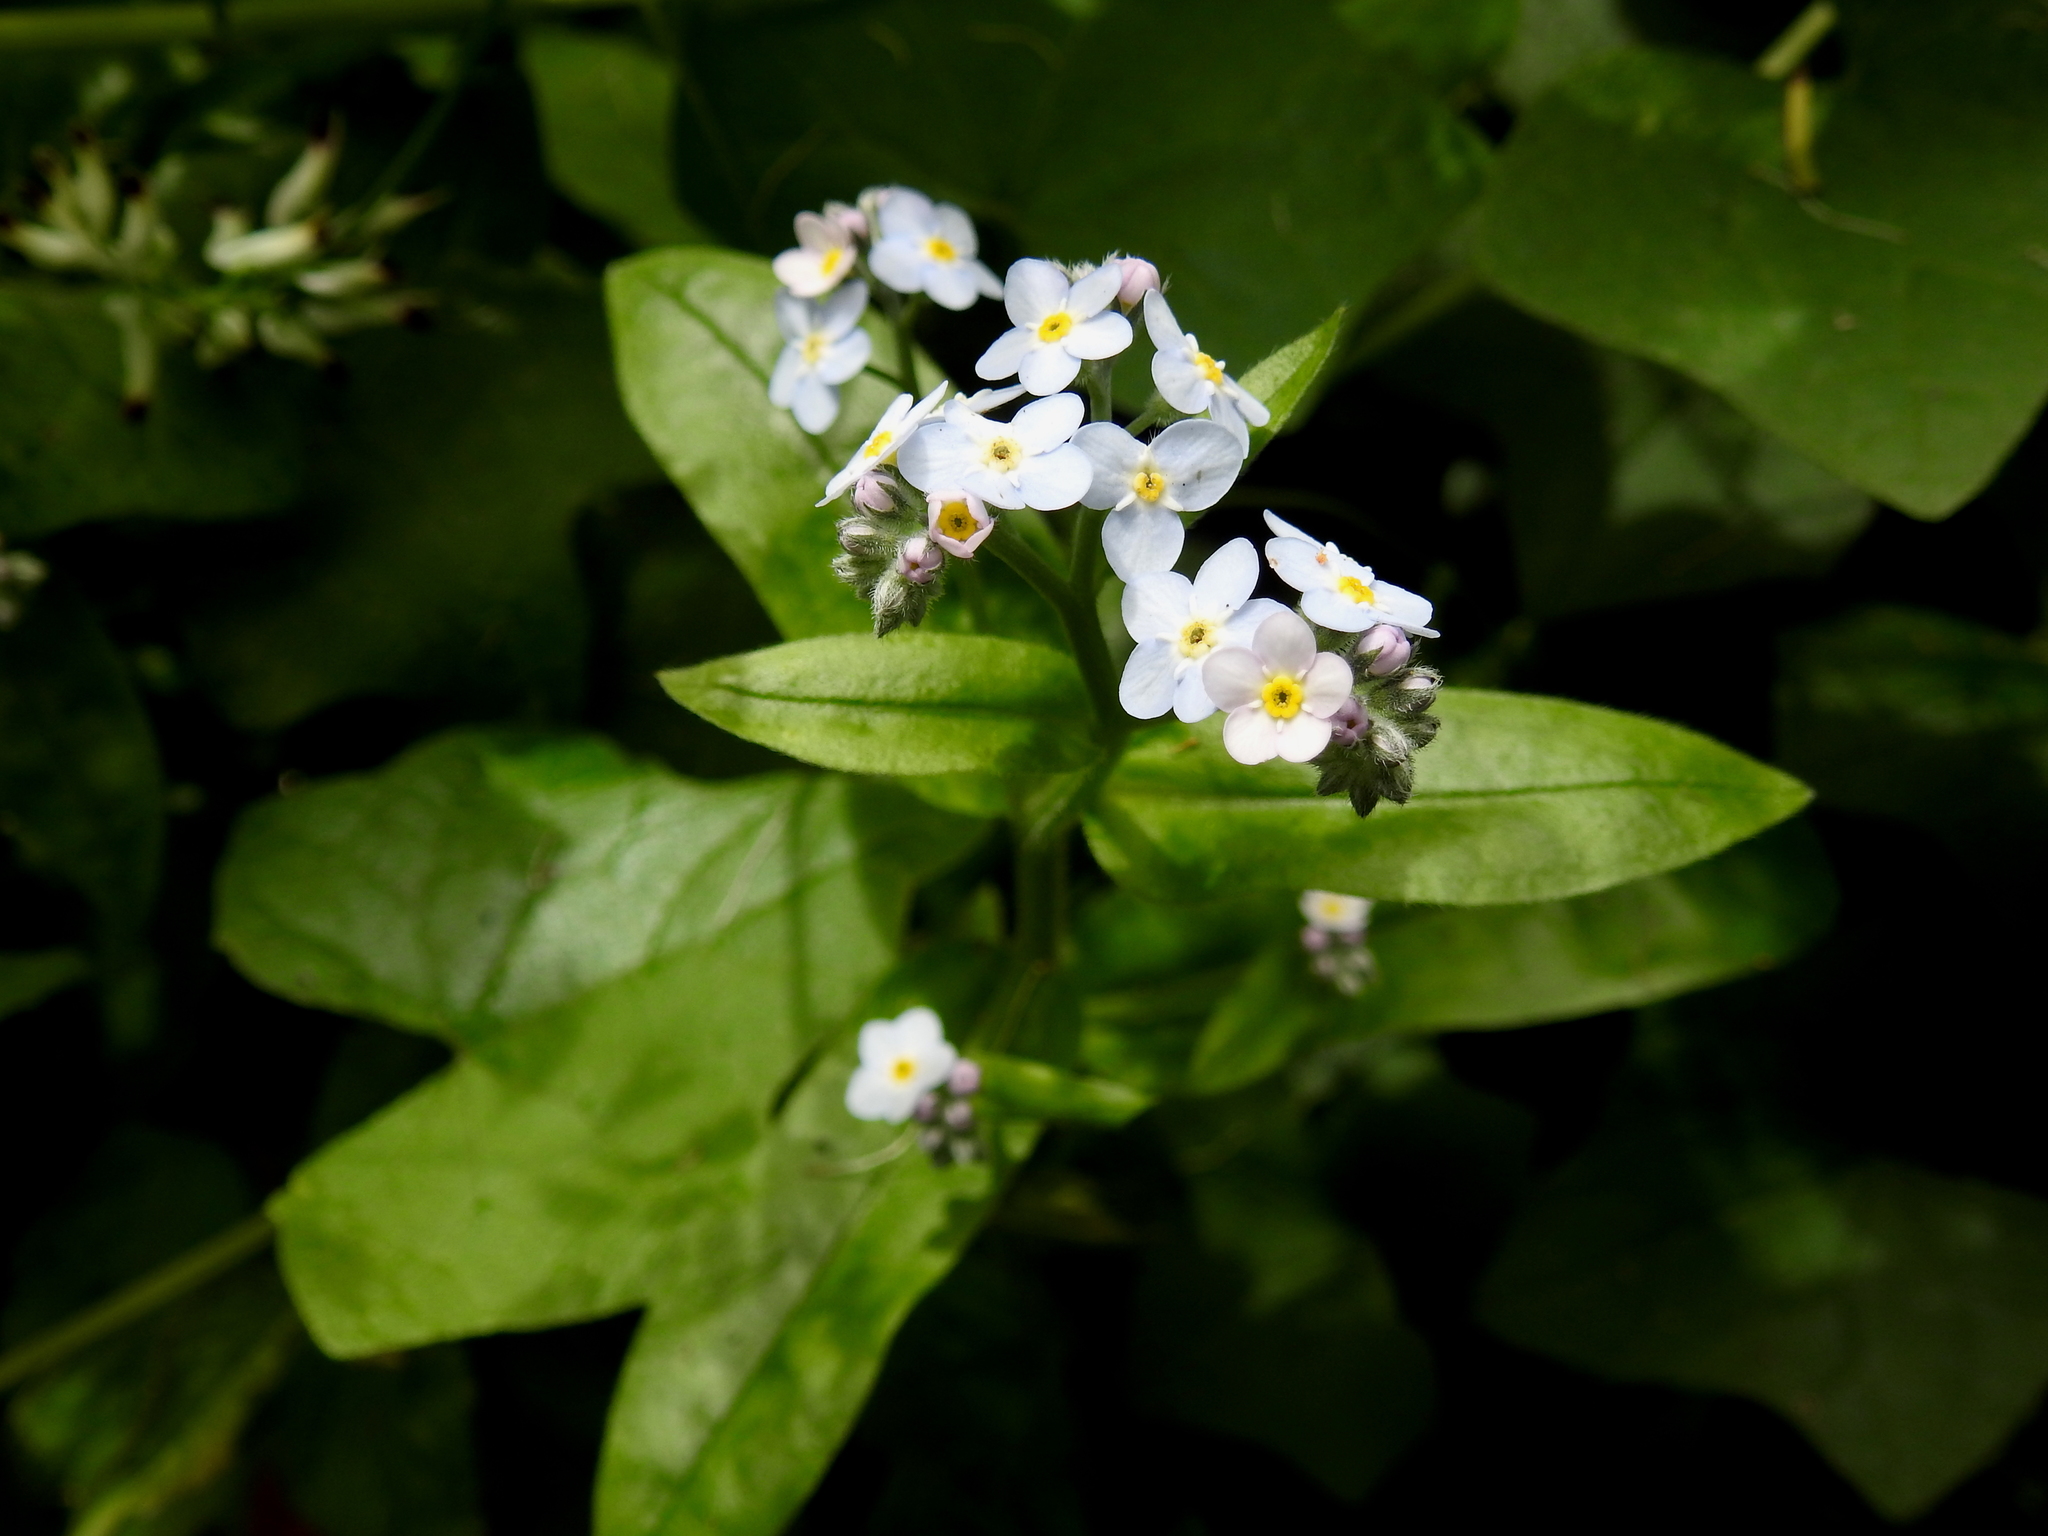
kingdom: Plantae
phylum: Tracheophyta
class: Magnoliopsida
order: Boraginales
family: Boraginaceae
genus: Myosotis
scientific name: Myosotis latifolia
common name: Broadleaf forget-me-not
